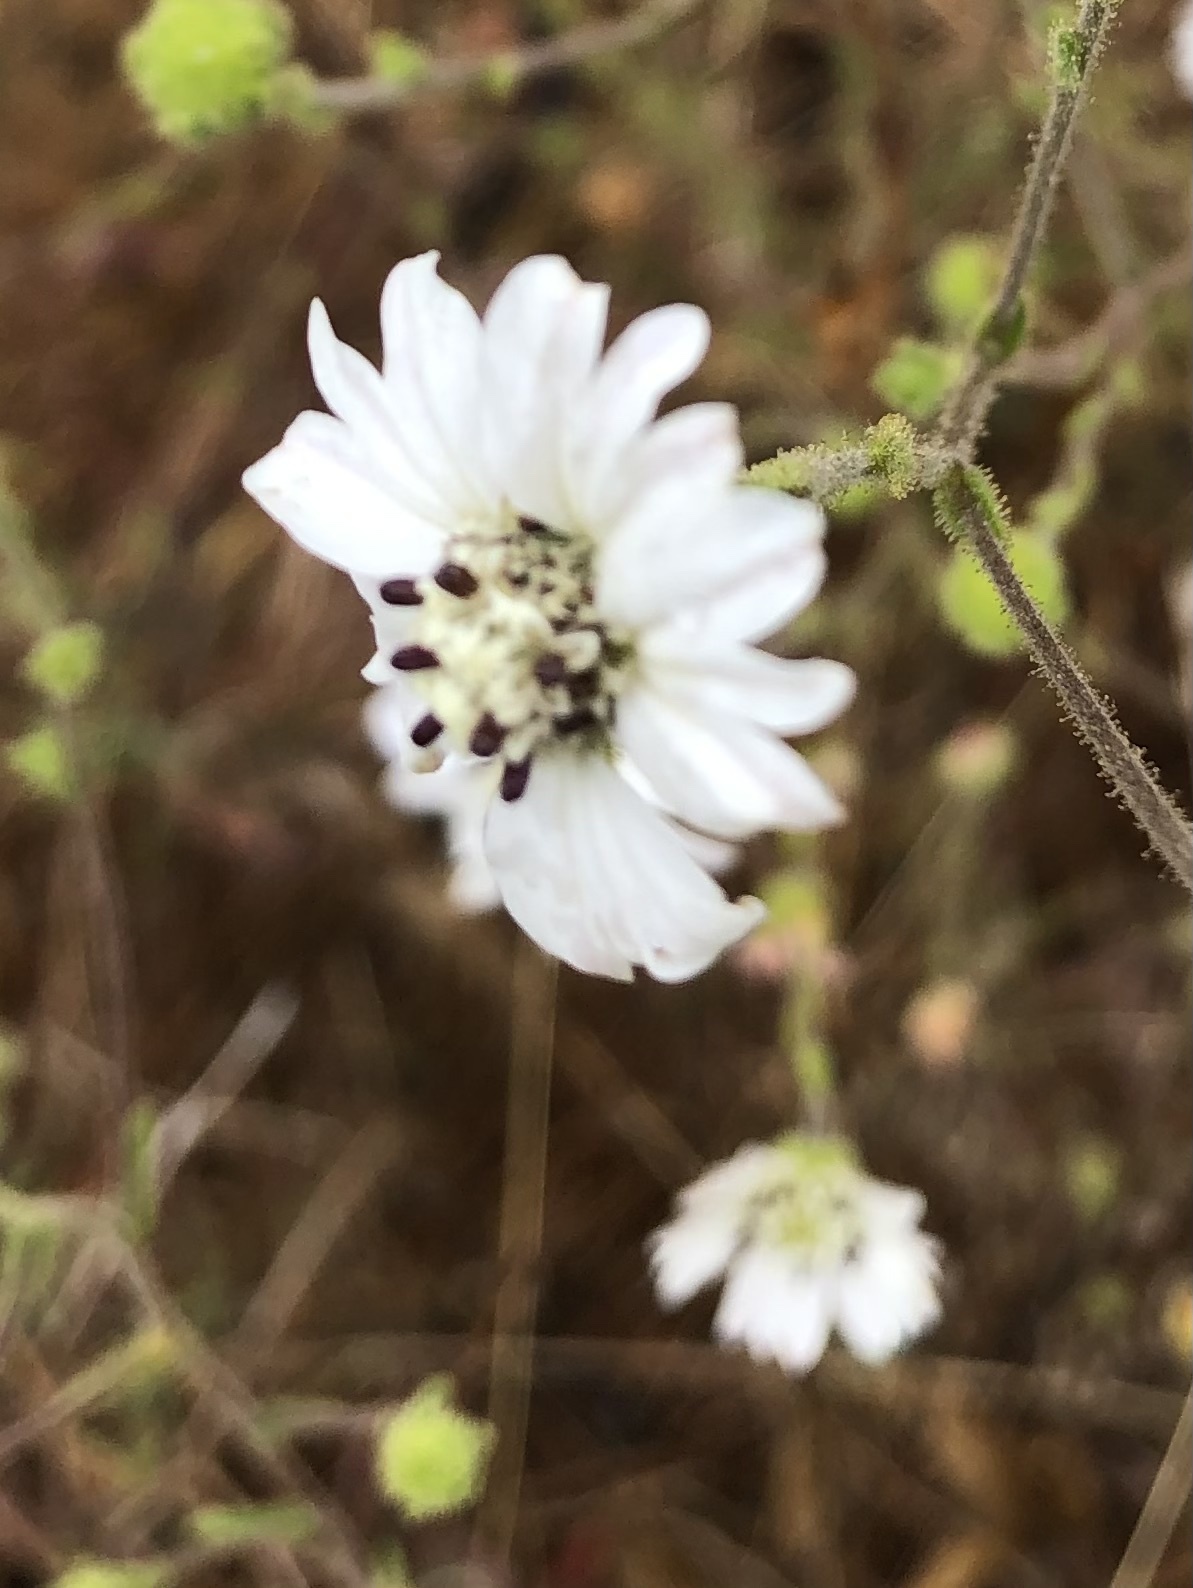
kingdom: Plantae
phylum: Tracheophyta
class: Magnoliopsida
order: Asterales
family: Asteraceae
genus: Hemizonia
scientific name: Hemizonia congesta
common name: Hayfield tarweed
